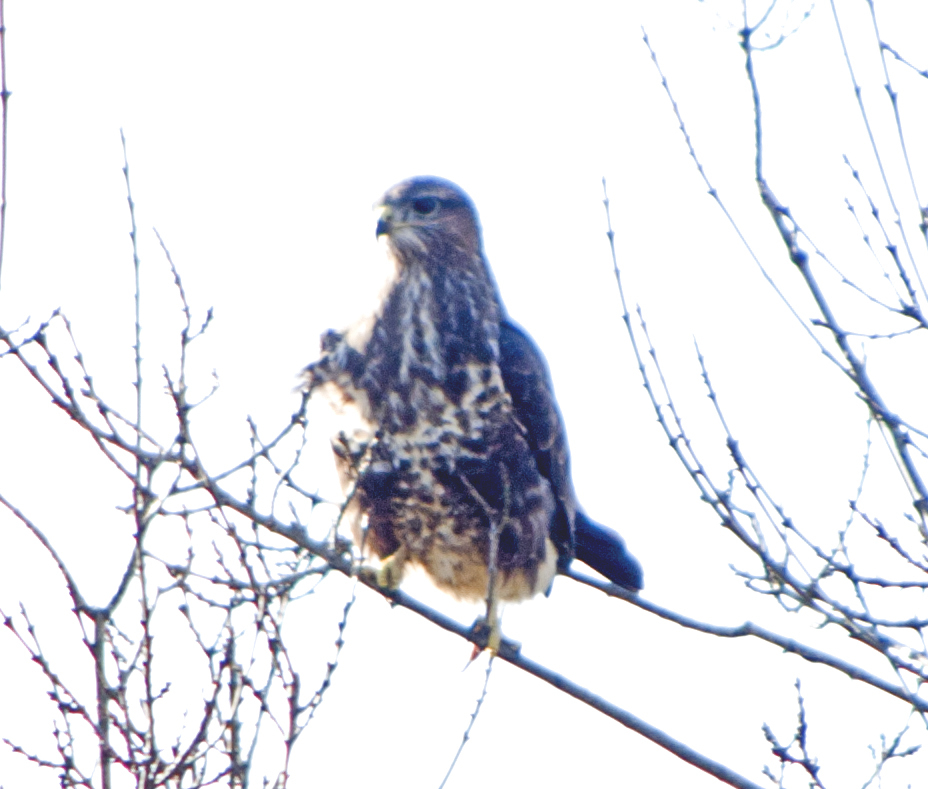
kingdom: Animalia
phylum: Chordata
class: Aves
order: Accipitriformes
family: Accipitridae
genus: Buteo
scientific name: Buteo buteo
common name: Common buzzard
